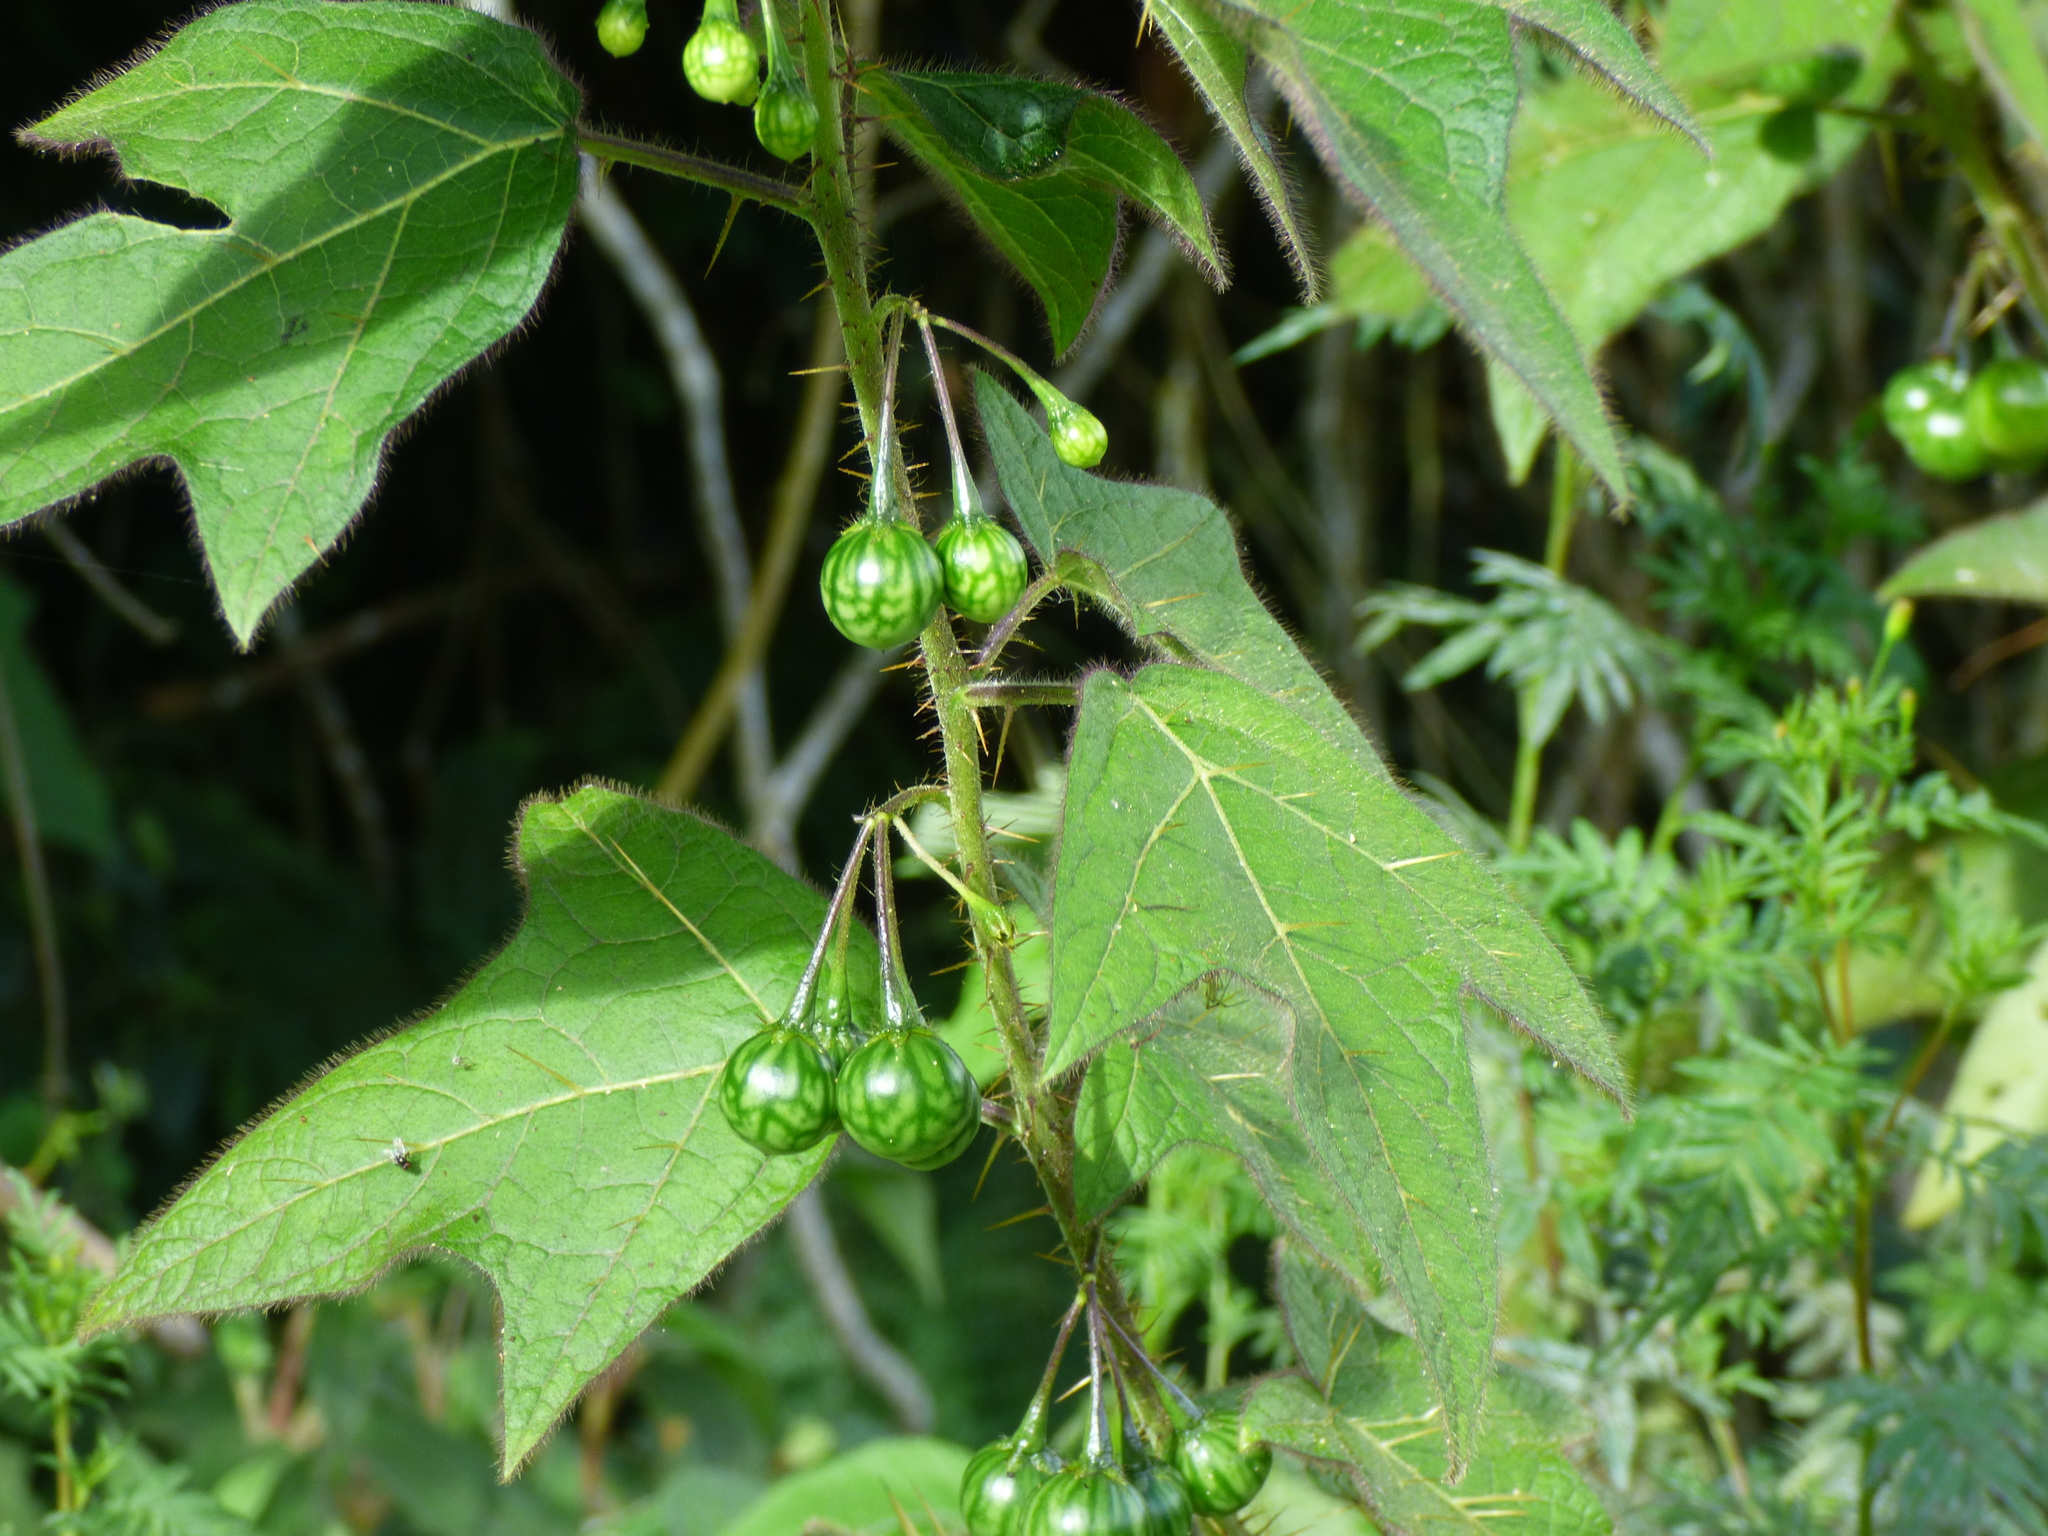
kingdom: Plantae
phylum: Tracheophyta
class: Magnoliopsida
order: Solanales
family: Solanaceae
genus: Solanum
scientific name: Solanum acerifolium
